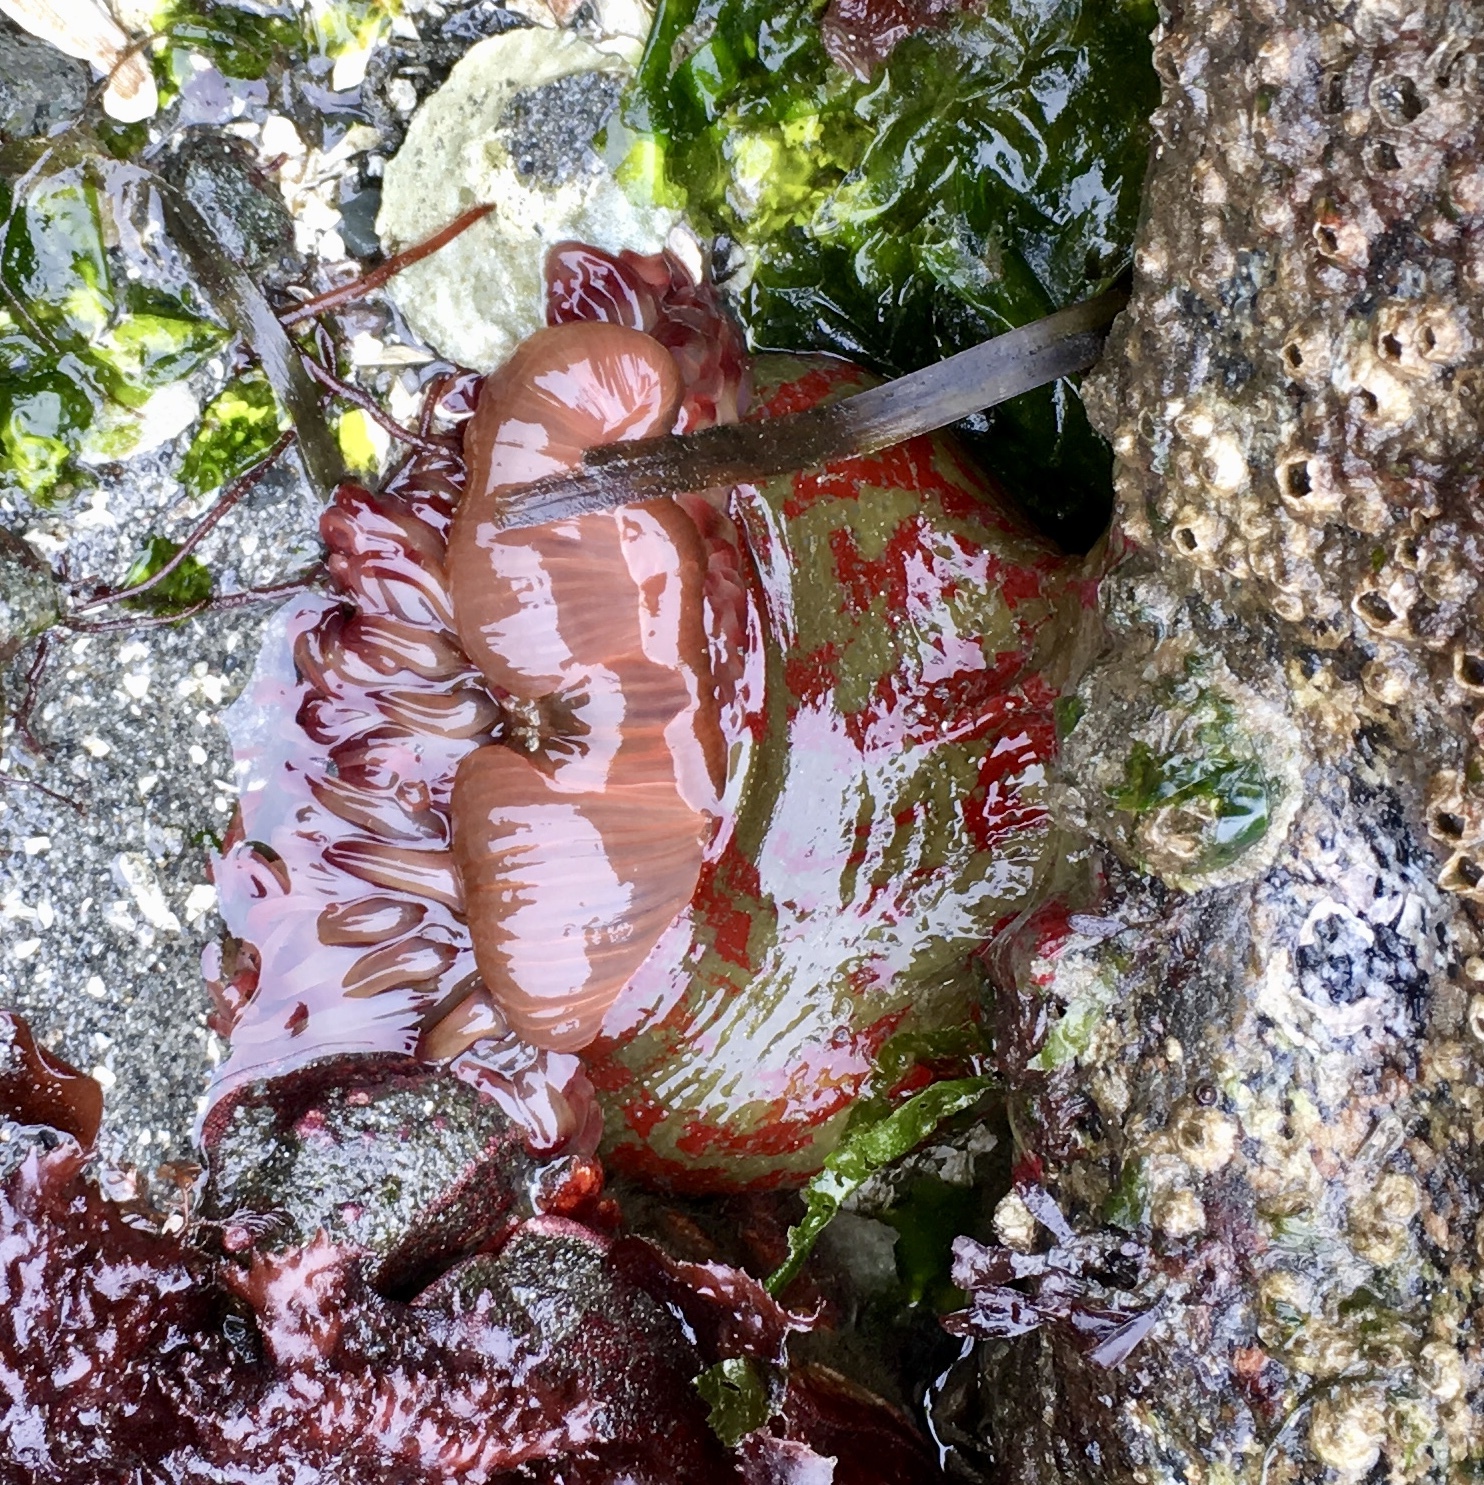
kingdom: Animalia
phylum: Cnidaria
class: Anthozoa
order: Actiniaria
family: Actiniidae
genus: Urticina
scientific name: Urticina grebelnyi
